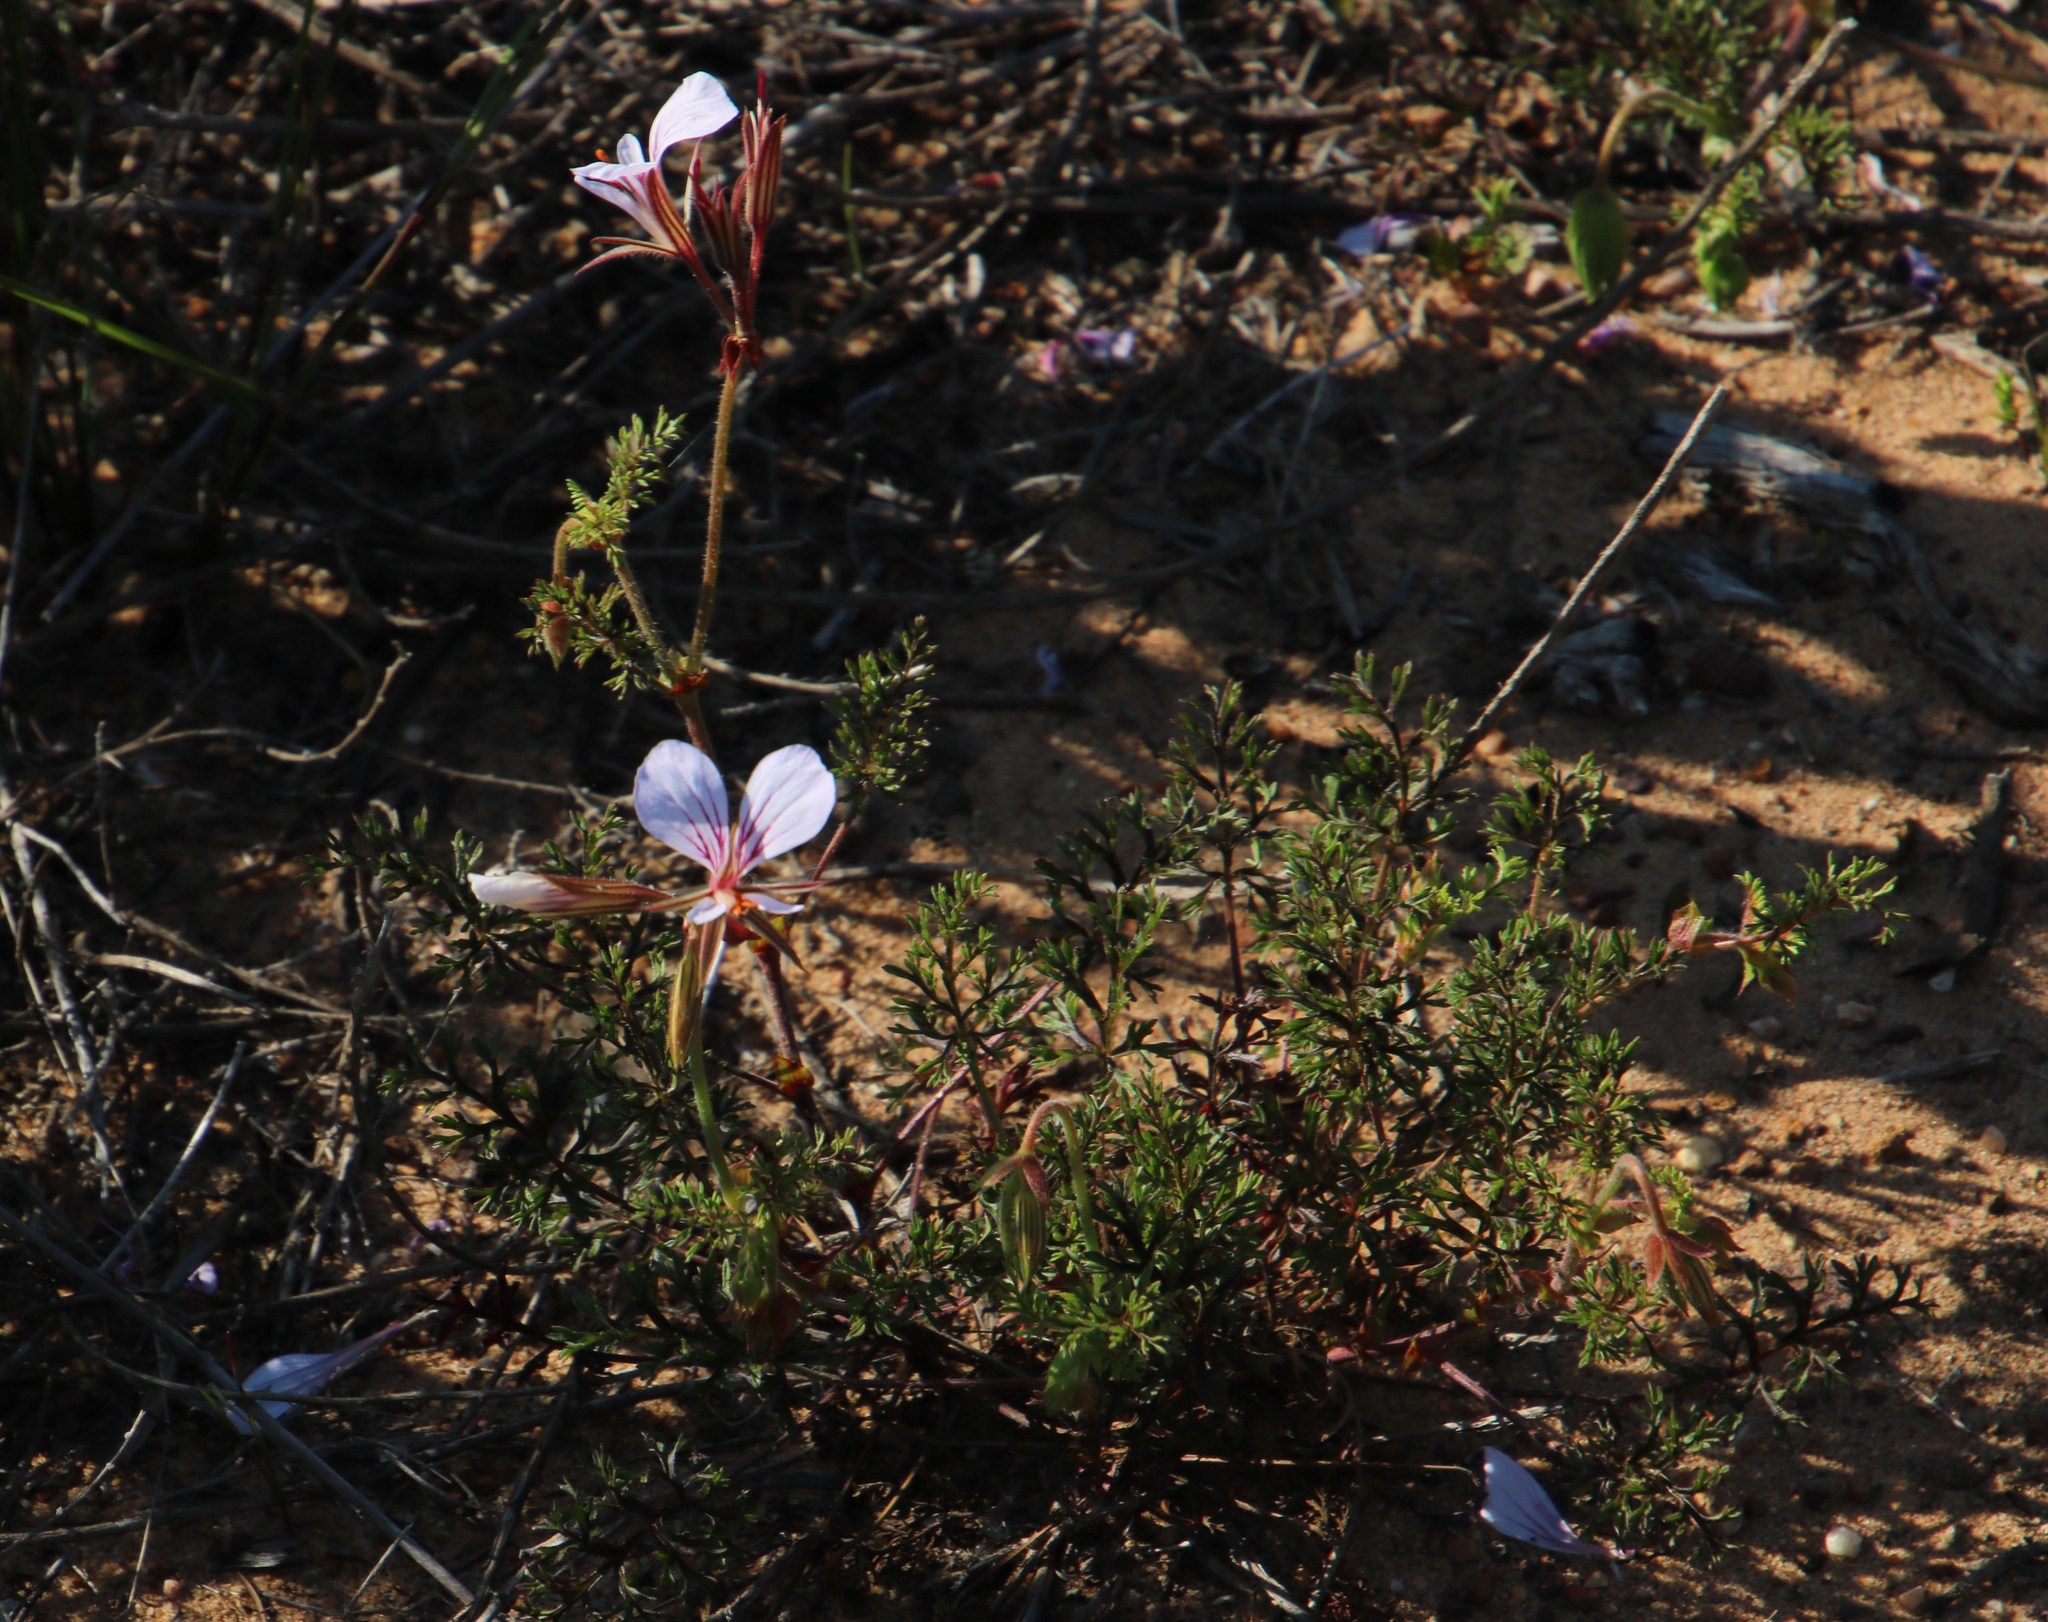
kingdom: Plantae
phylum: Tracheophyta
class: Magnoliopsida
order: Geraniales
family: Geraniaceae
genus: Pelargonium
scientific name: Pelargonium myrrhifolium
